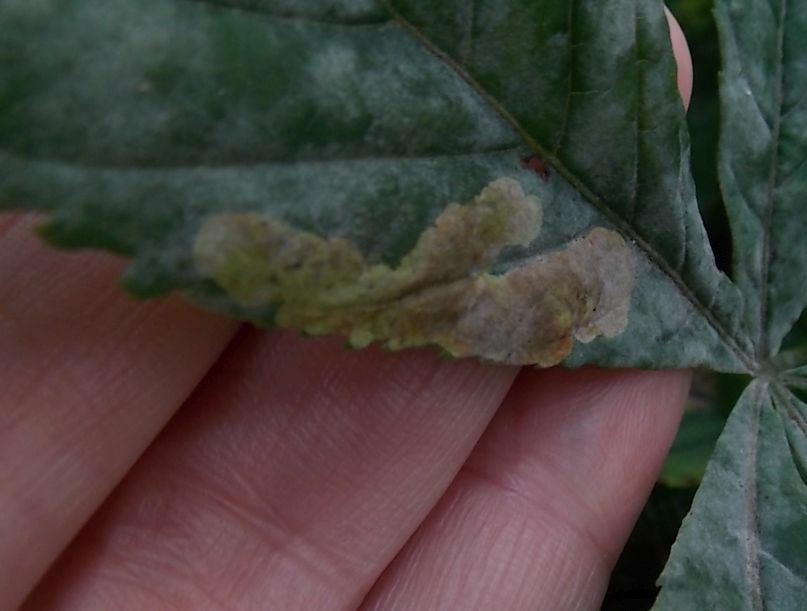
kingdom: Animalia
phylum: Arthropoda
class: Insecta
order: Lepidoptera
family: Gracillariidae
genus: Cameraria
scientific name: Cameraria ohridella
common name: Horse-chestnut leaf-miner
